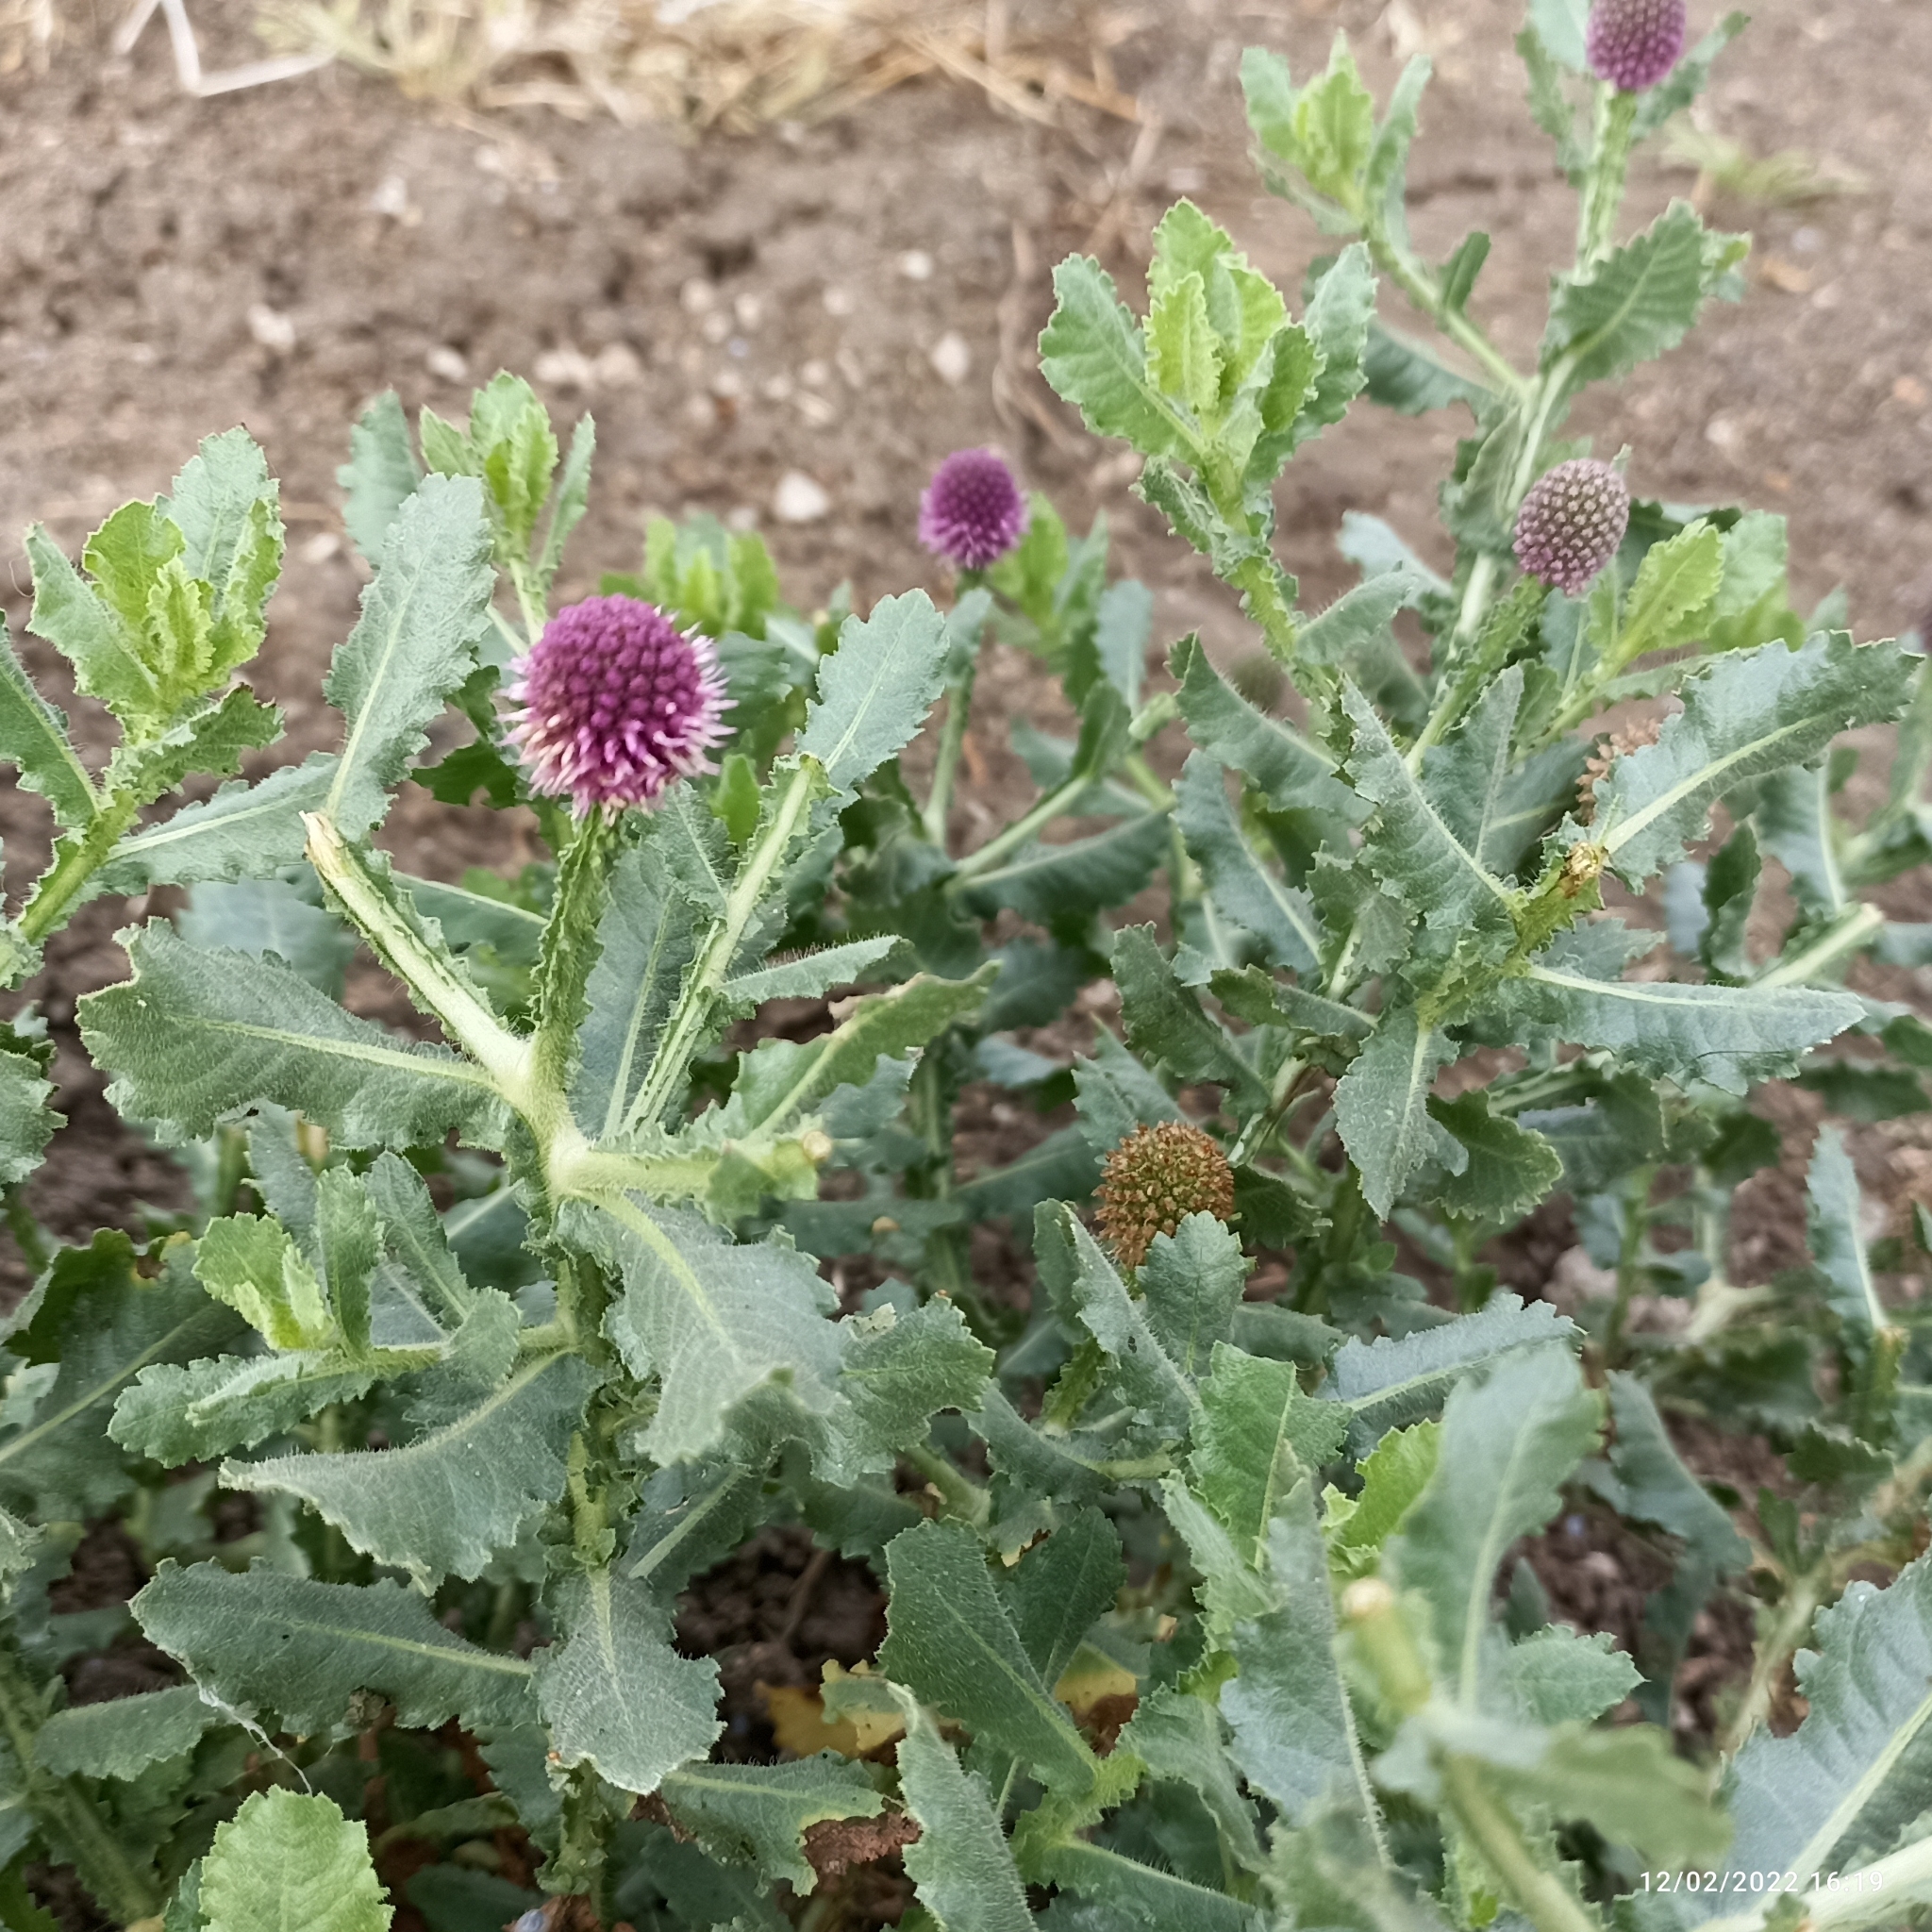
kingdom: Plantae
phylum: Tracheophyta
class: Magnoliopsida
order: Asterales
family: Asteraceae
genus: Sphaeranthus
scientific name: Sphaeranthus indicus
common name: East indian globe thistle
